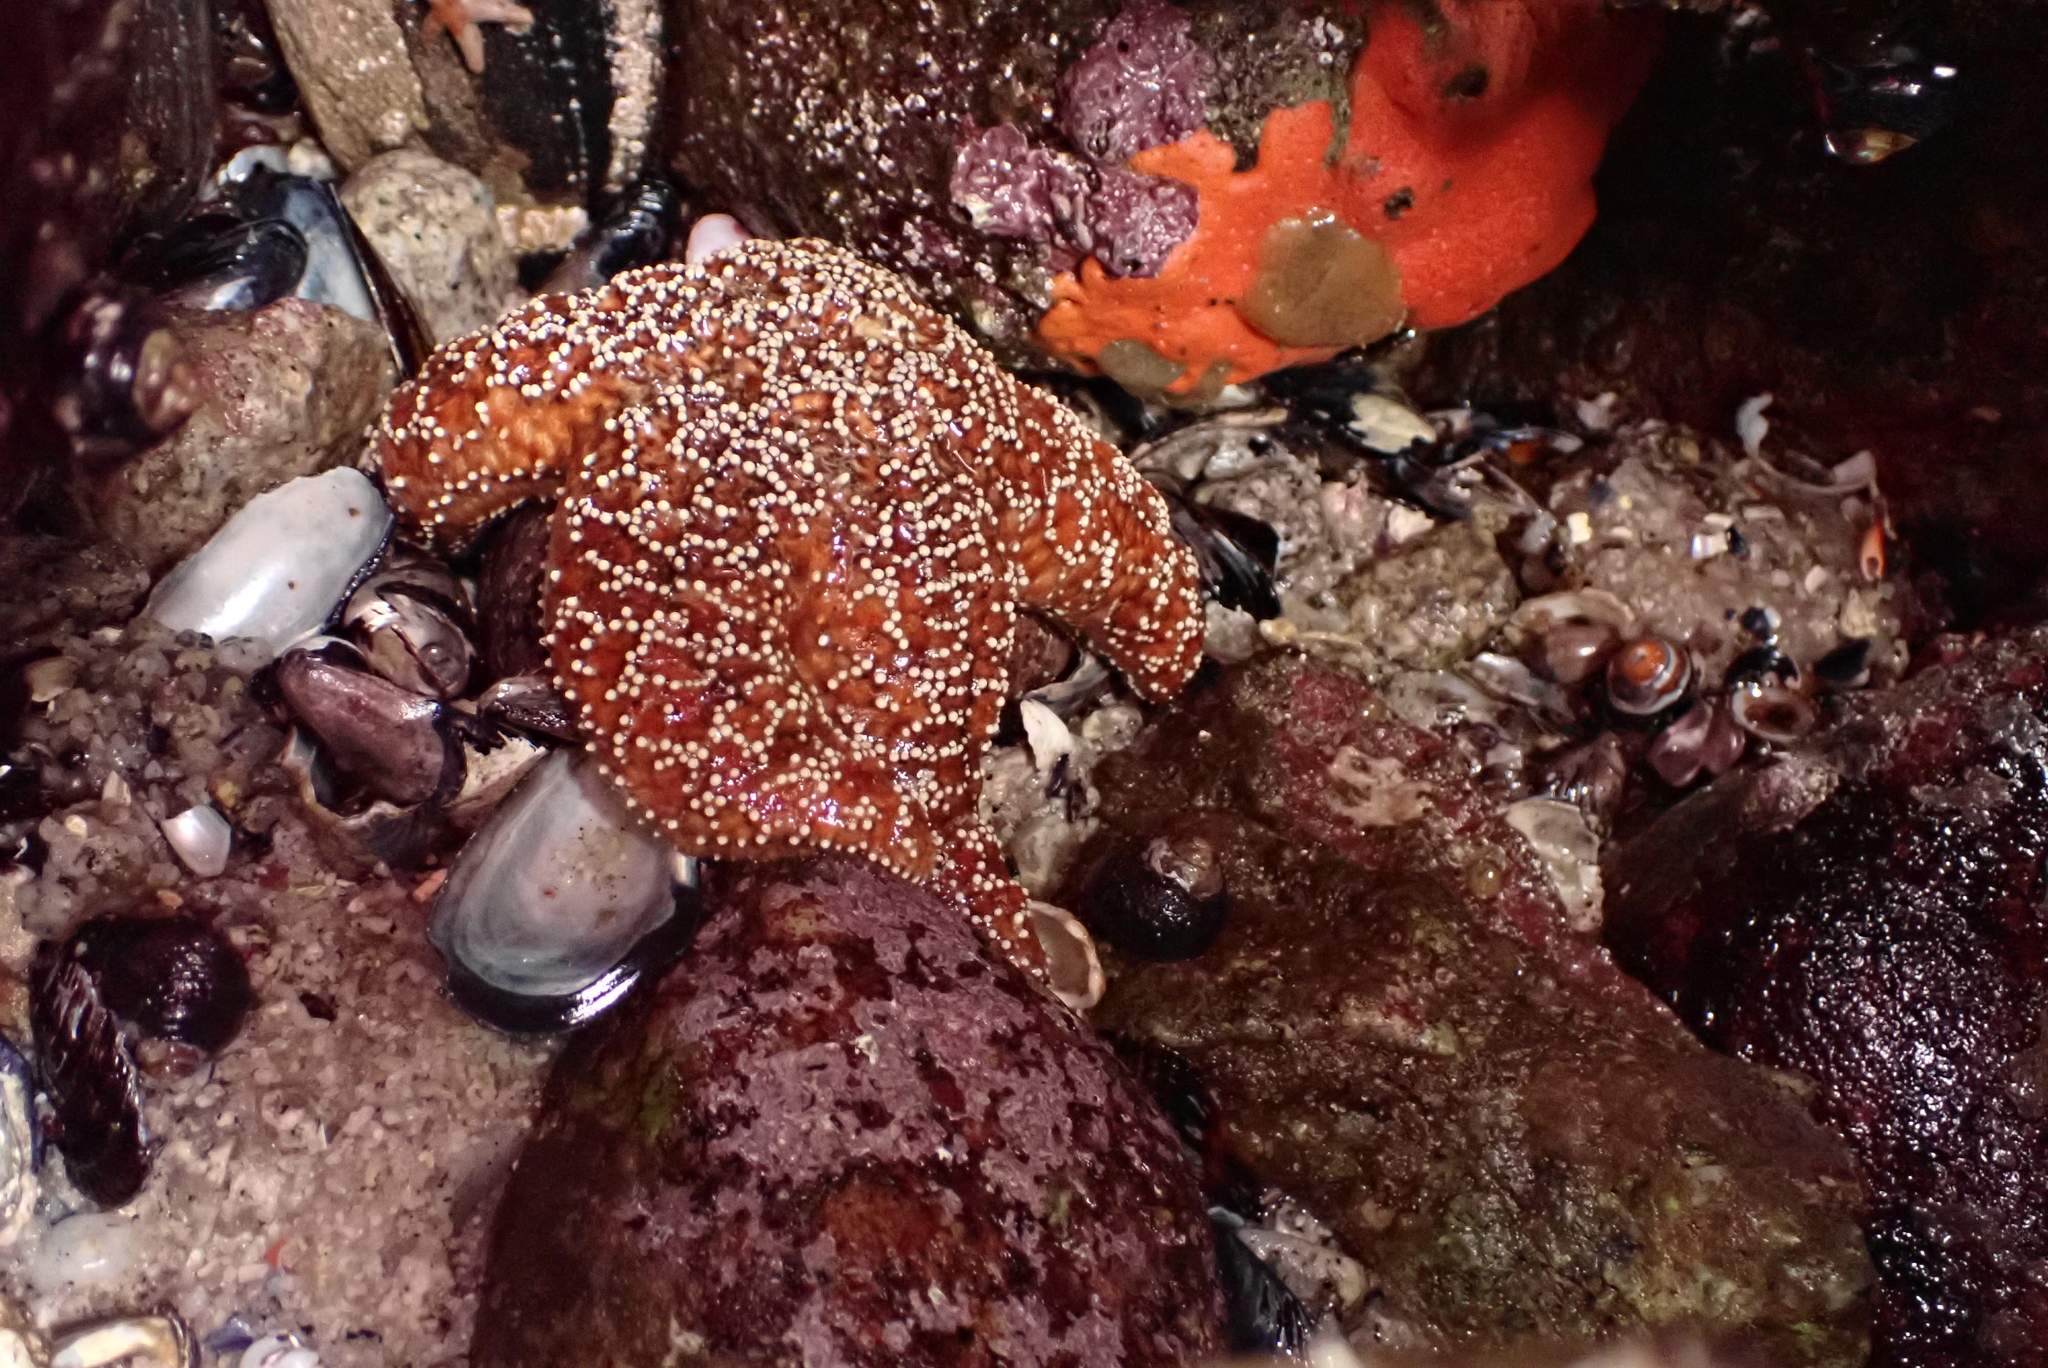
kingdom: Animalia
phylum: Echinodermata
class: Asteroidea
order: Forcipulatida
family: Asteriidae
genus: Pisaster
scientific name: Pisaster ochraceus
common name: Ochre stars
